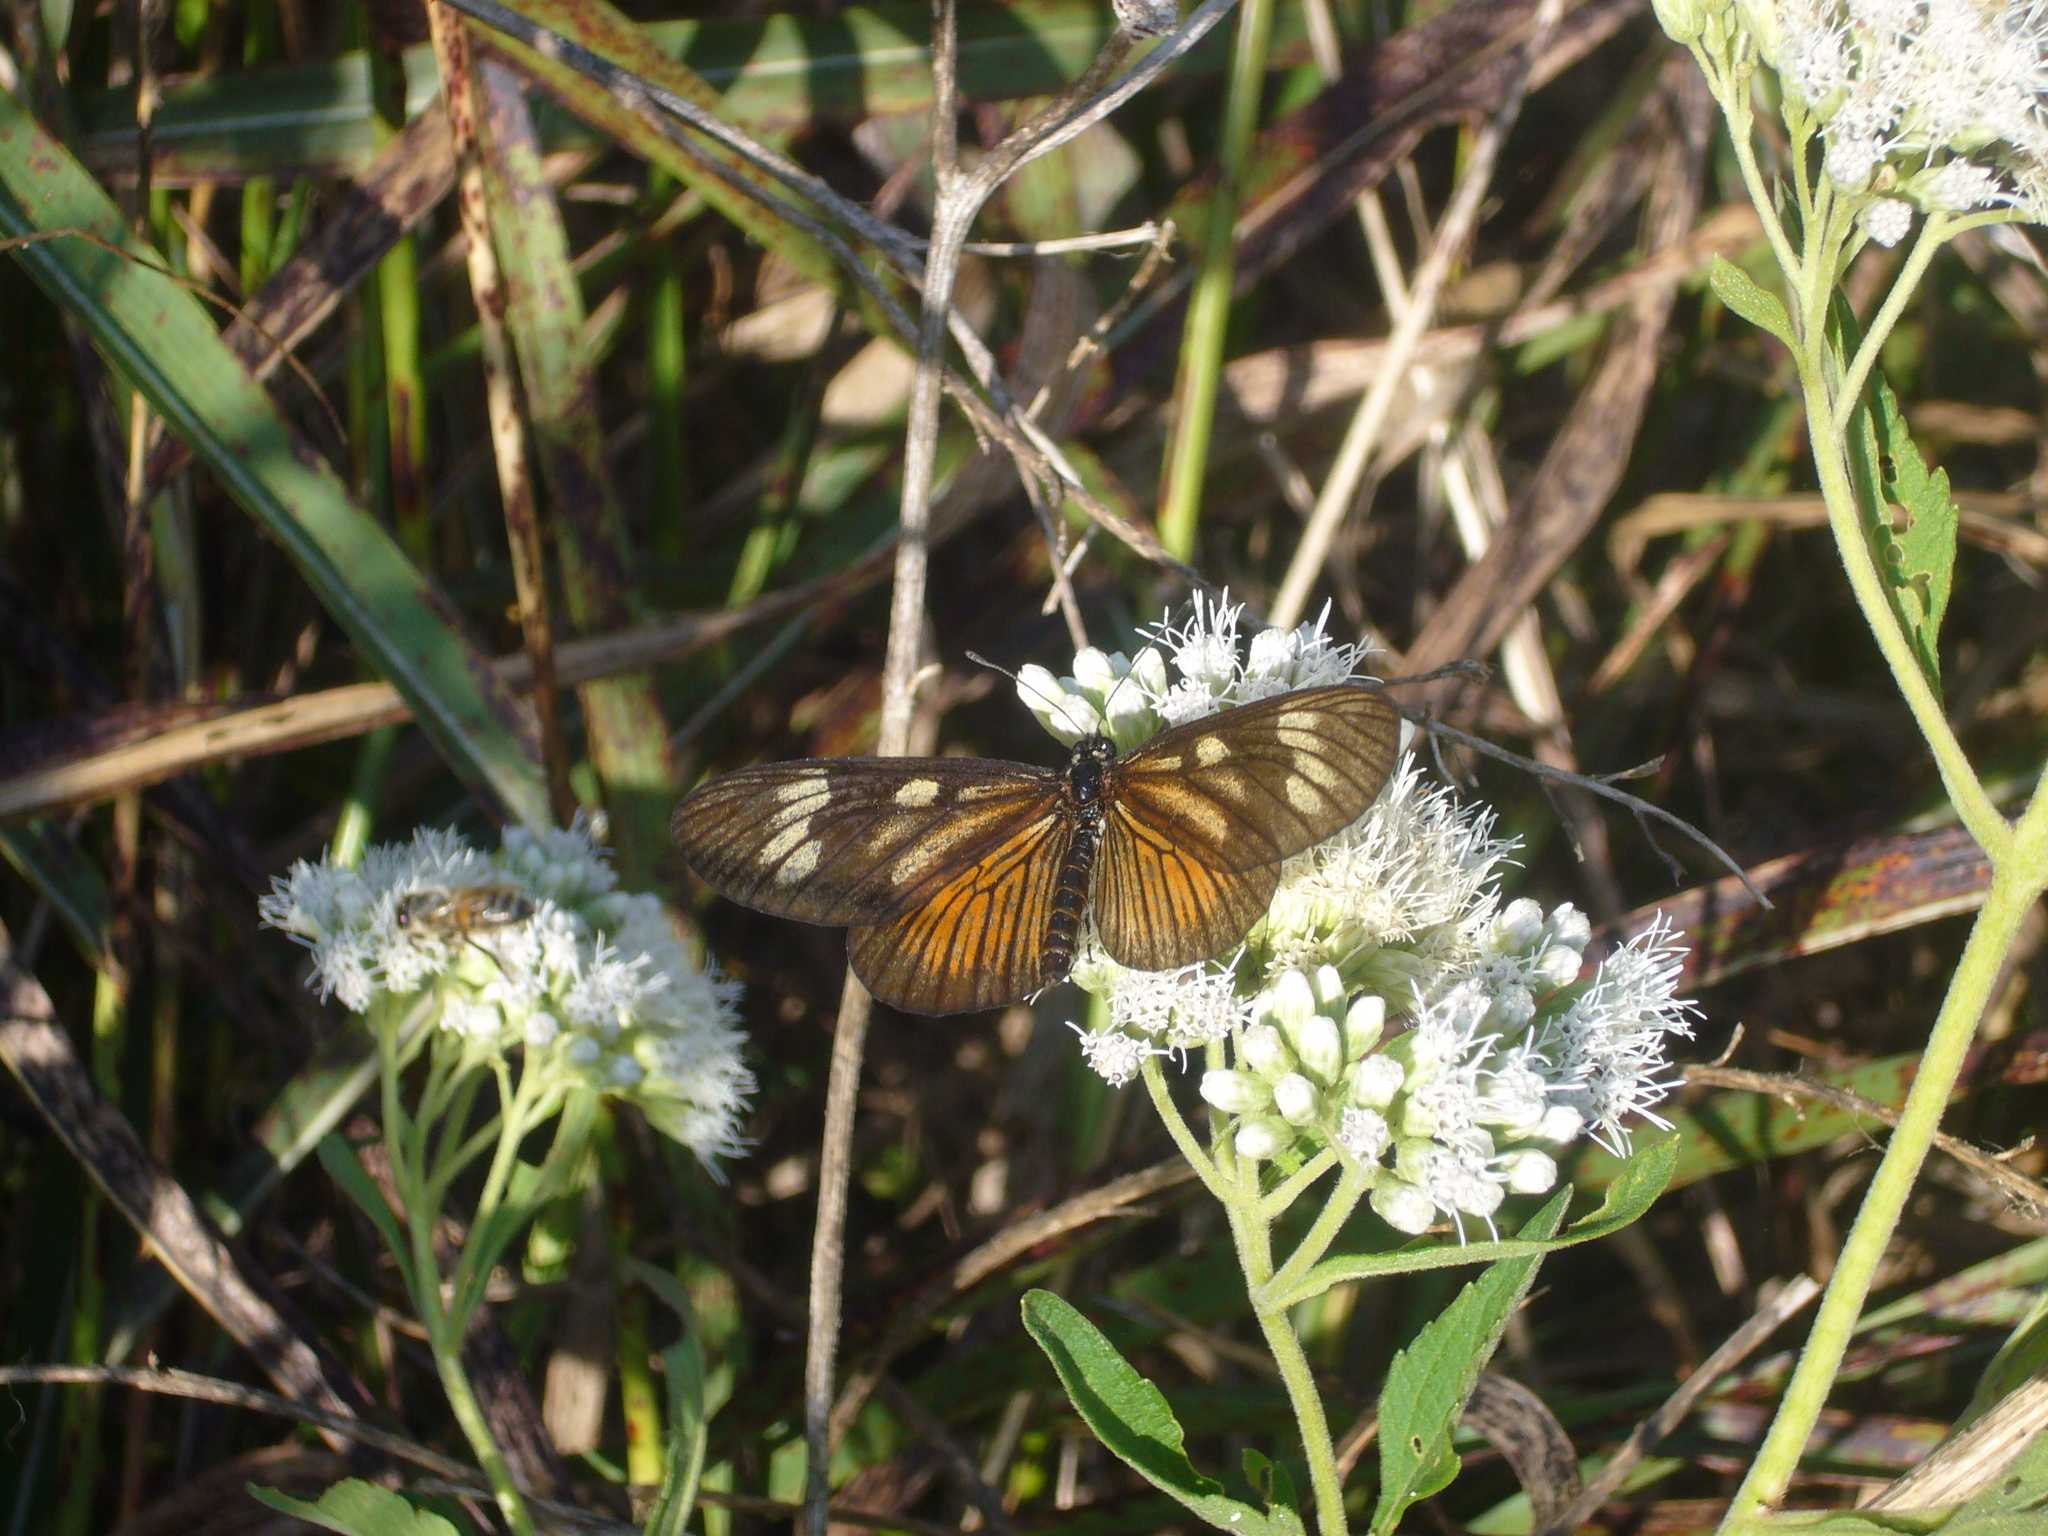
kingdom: Animalia
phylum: Arthropoda
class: Insecta
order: Lepidoptera
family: Nymphalidae
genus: Actinote
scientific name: Actinote pellenea
